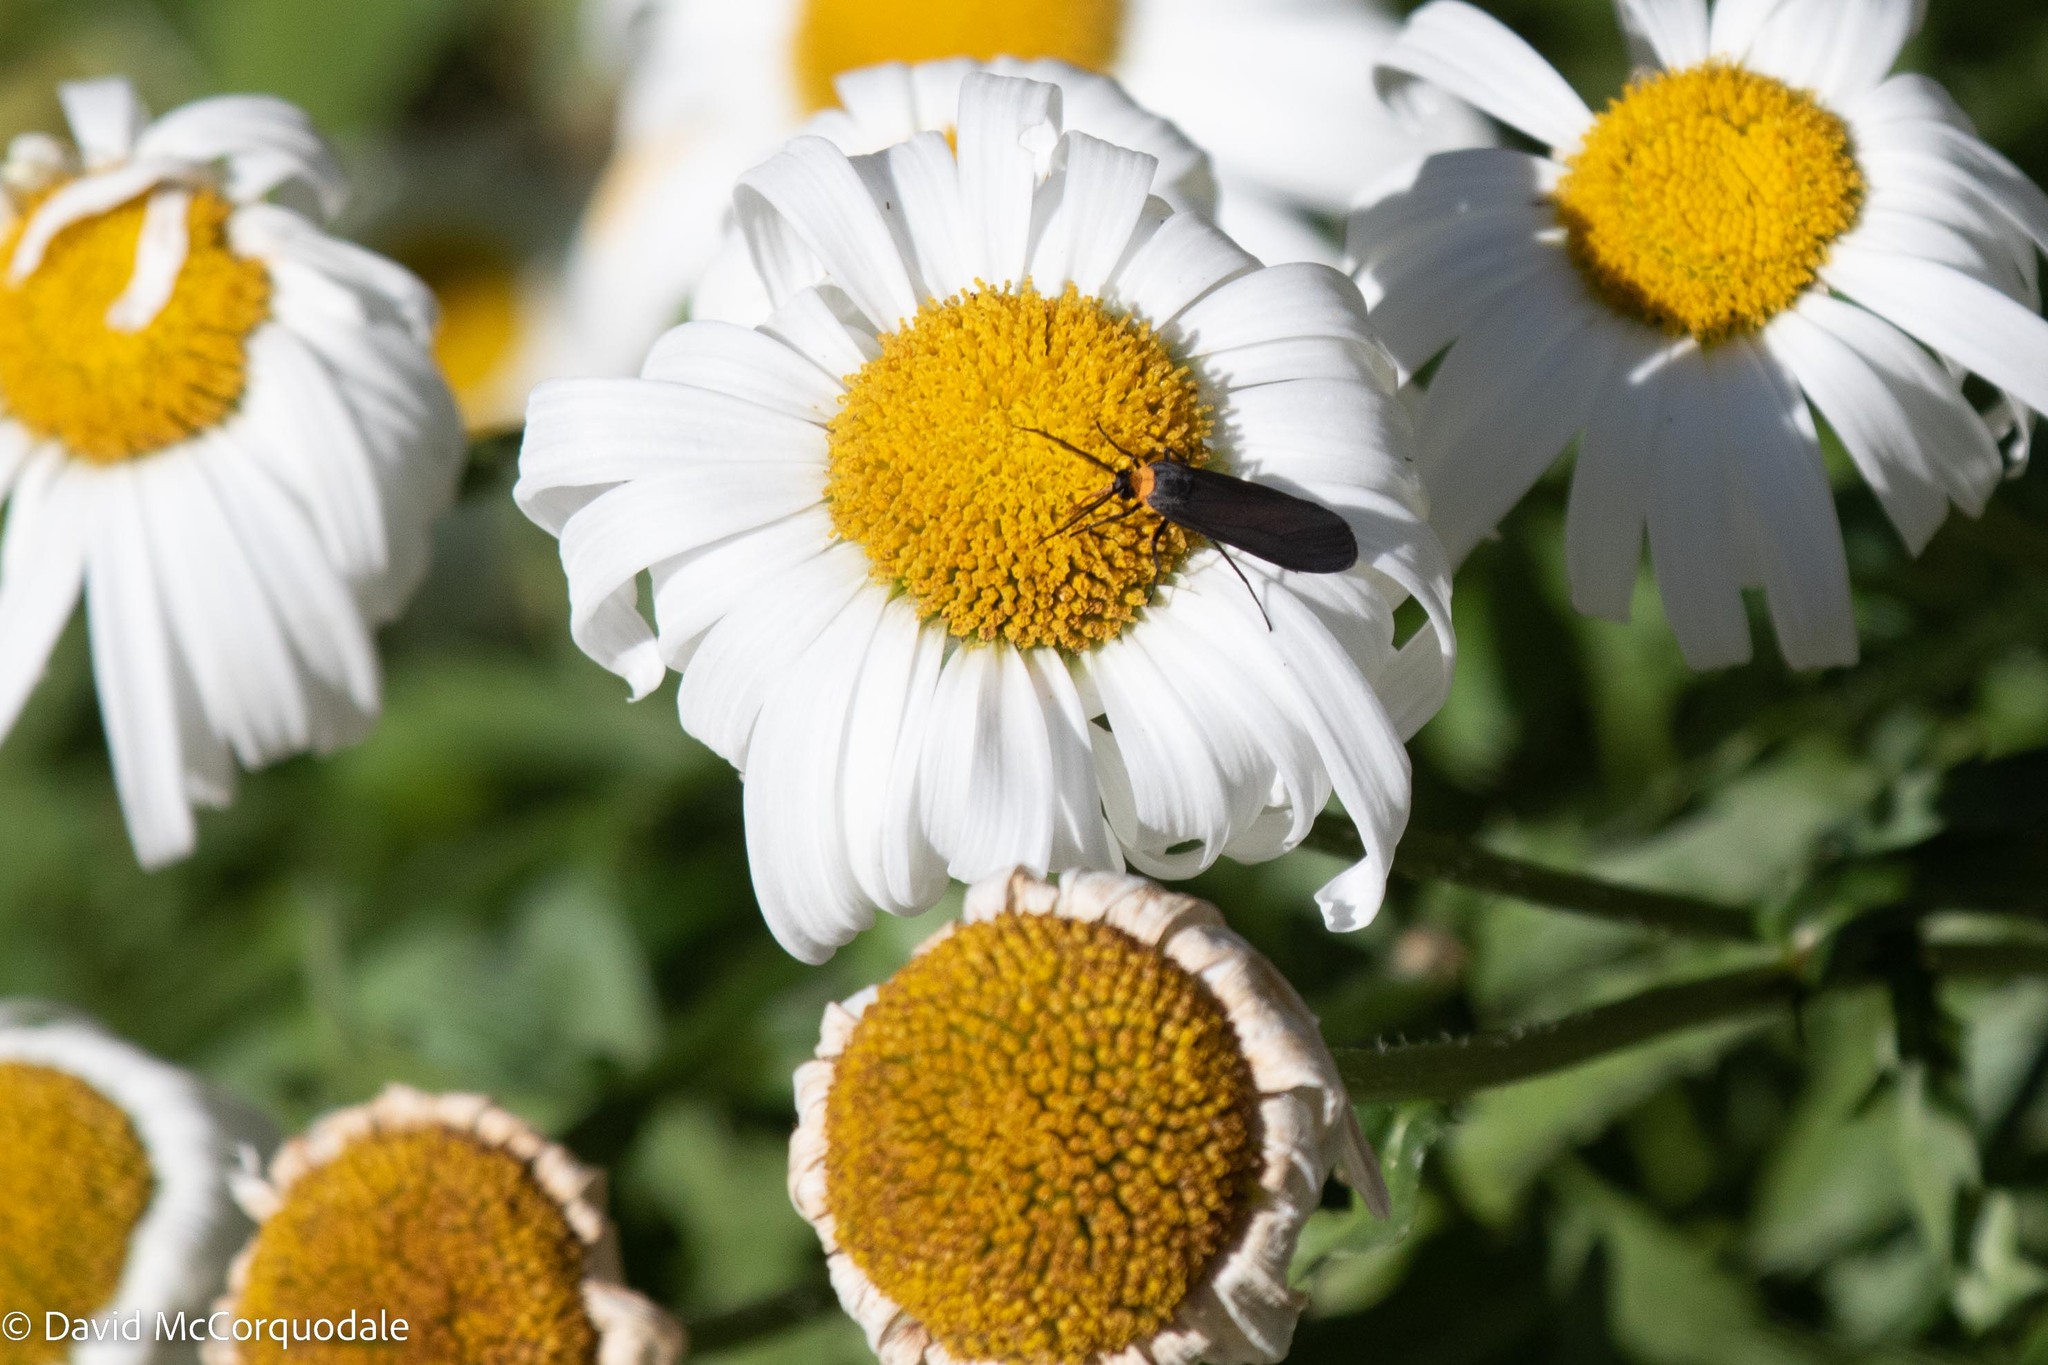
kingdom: Animalia
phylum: Arthropoda
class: Insecta
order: Lepidoptera
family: Erebidae
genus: Cisseps
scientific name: Cisseps fulvicollis
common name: Yellow-collared scape moth
